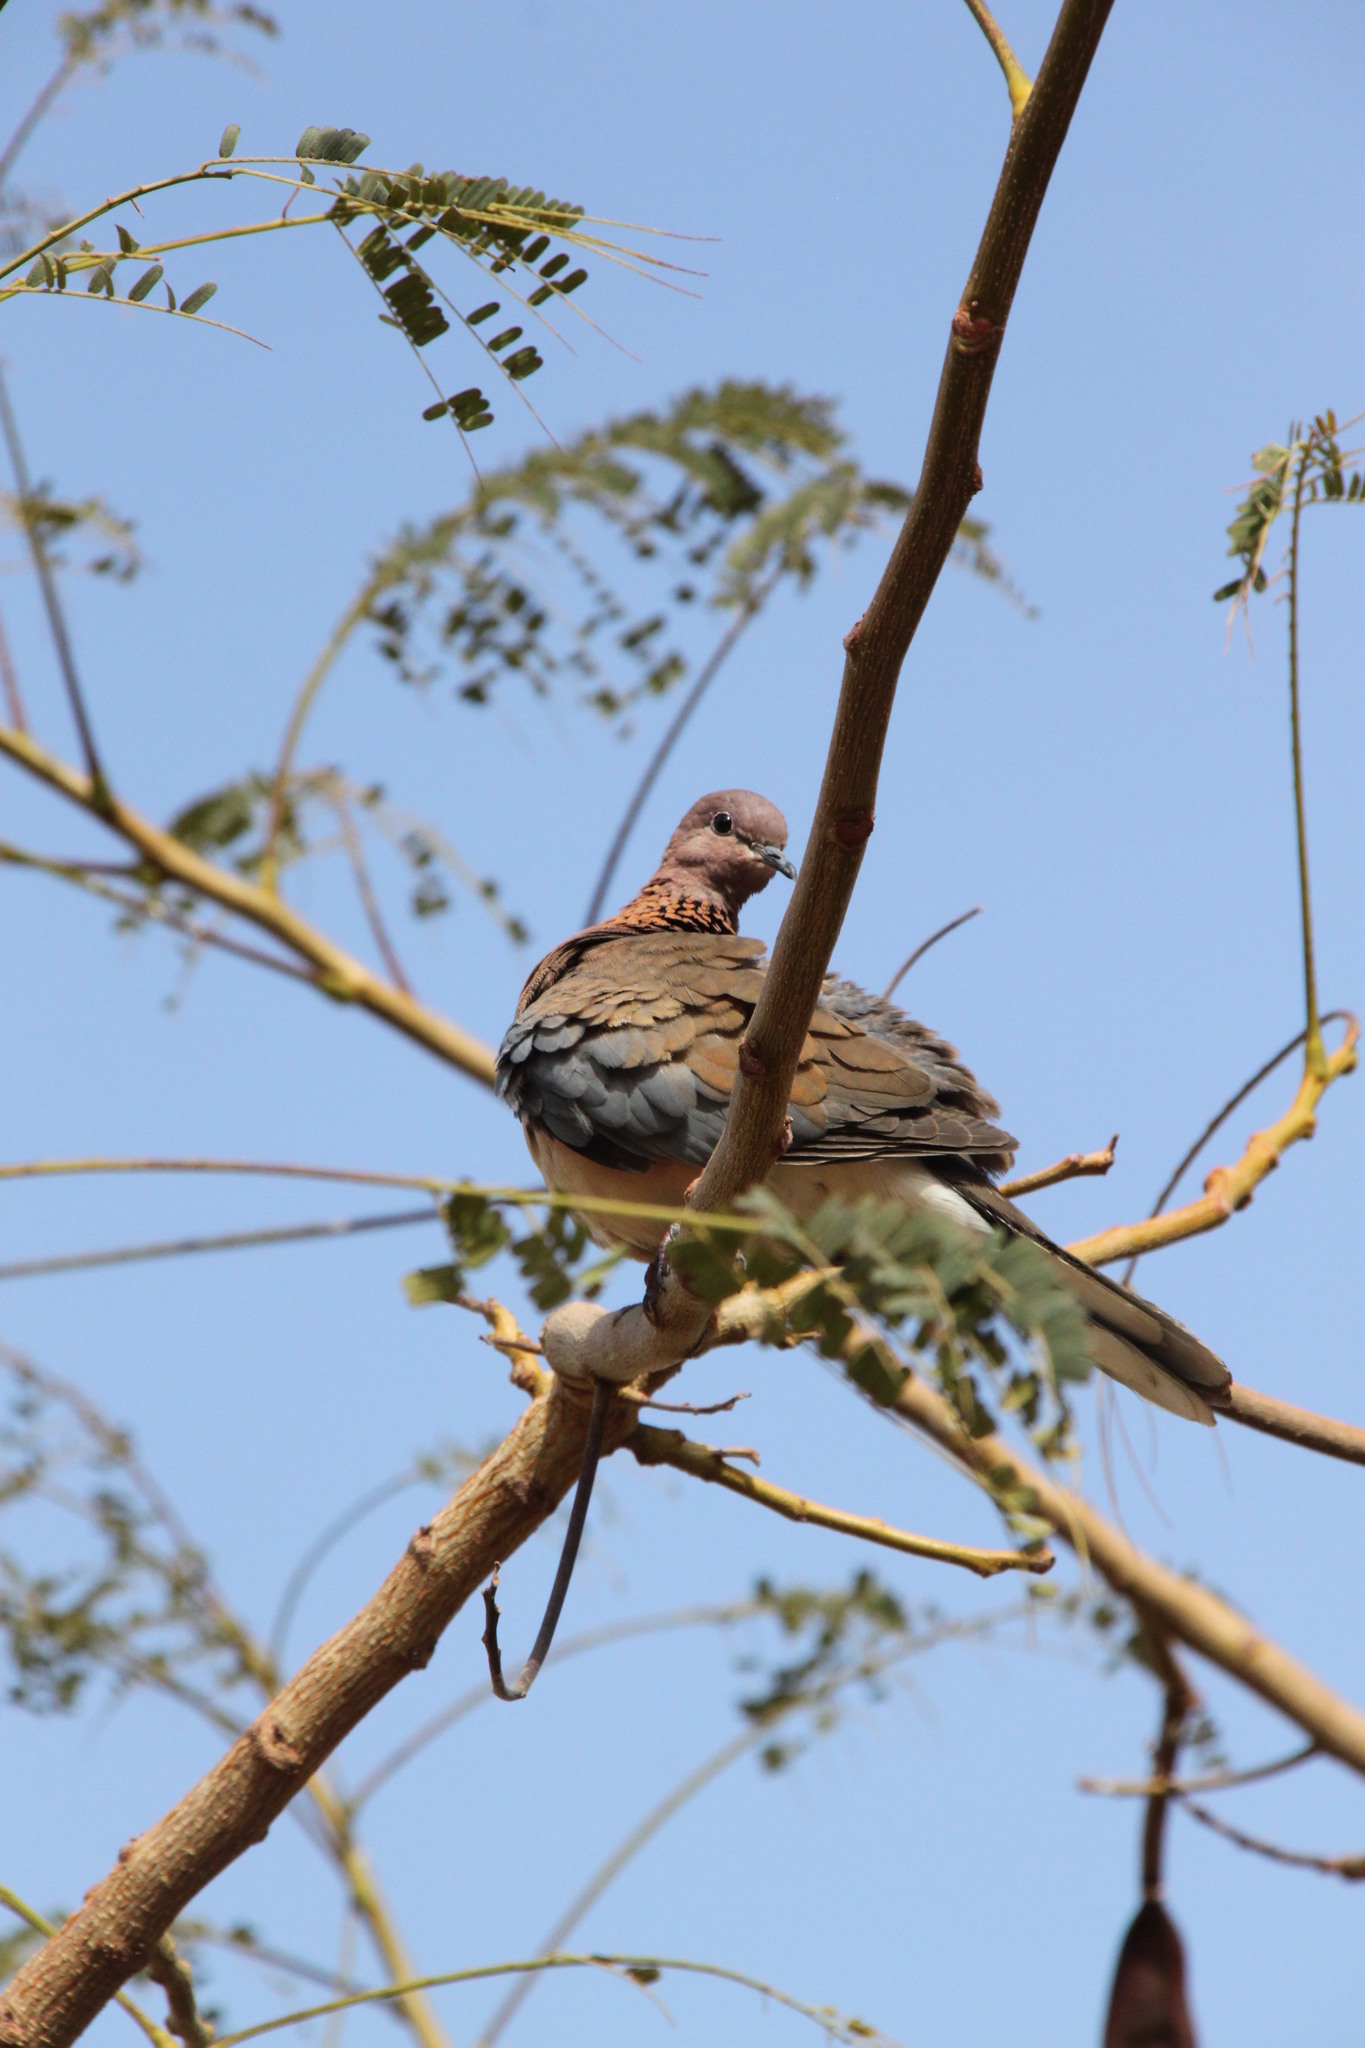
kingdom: Animalia
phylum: Chordata
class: Aves
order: Columbiformes
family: Columbidae
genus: Spilopelia
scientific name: Spilopelia senegalensis
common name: Laughing dove
